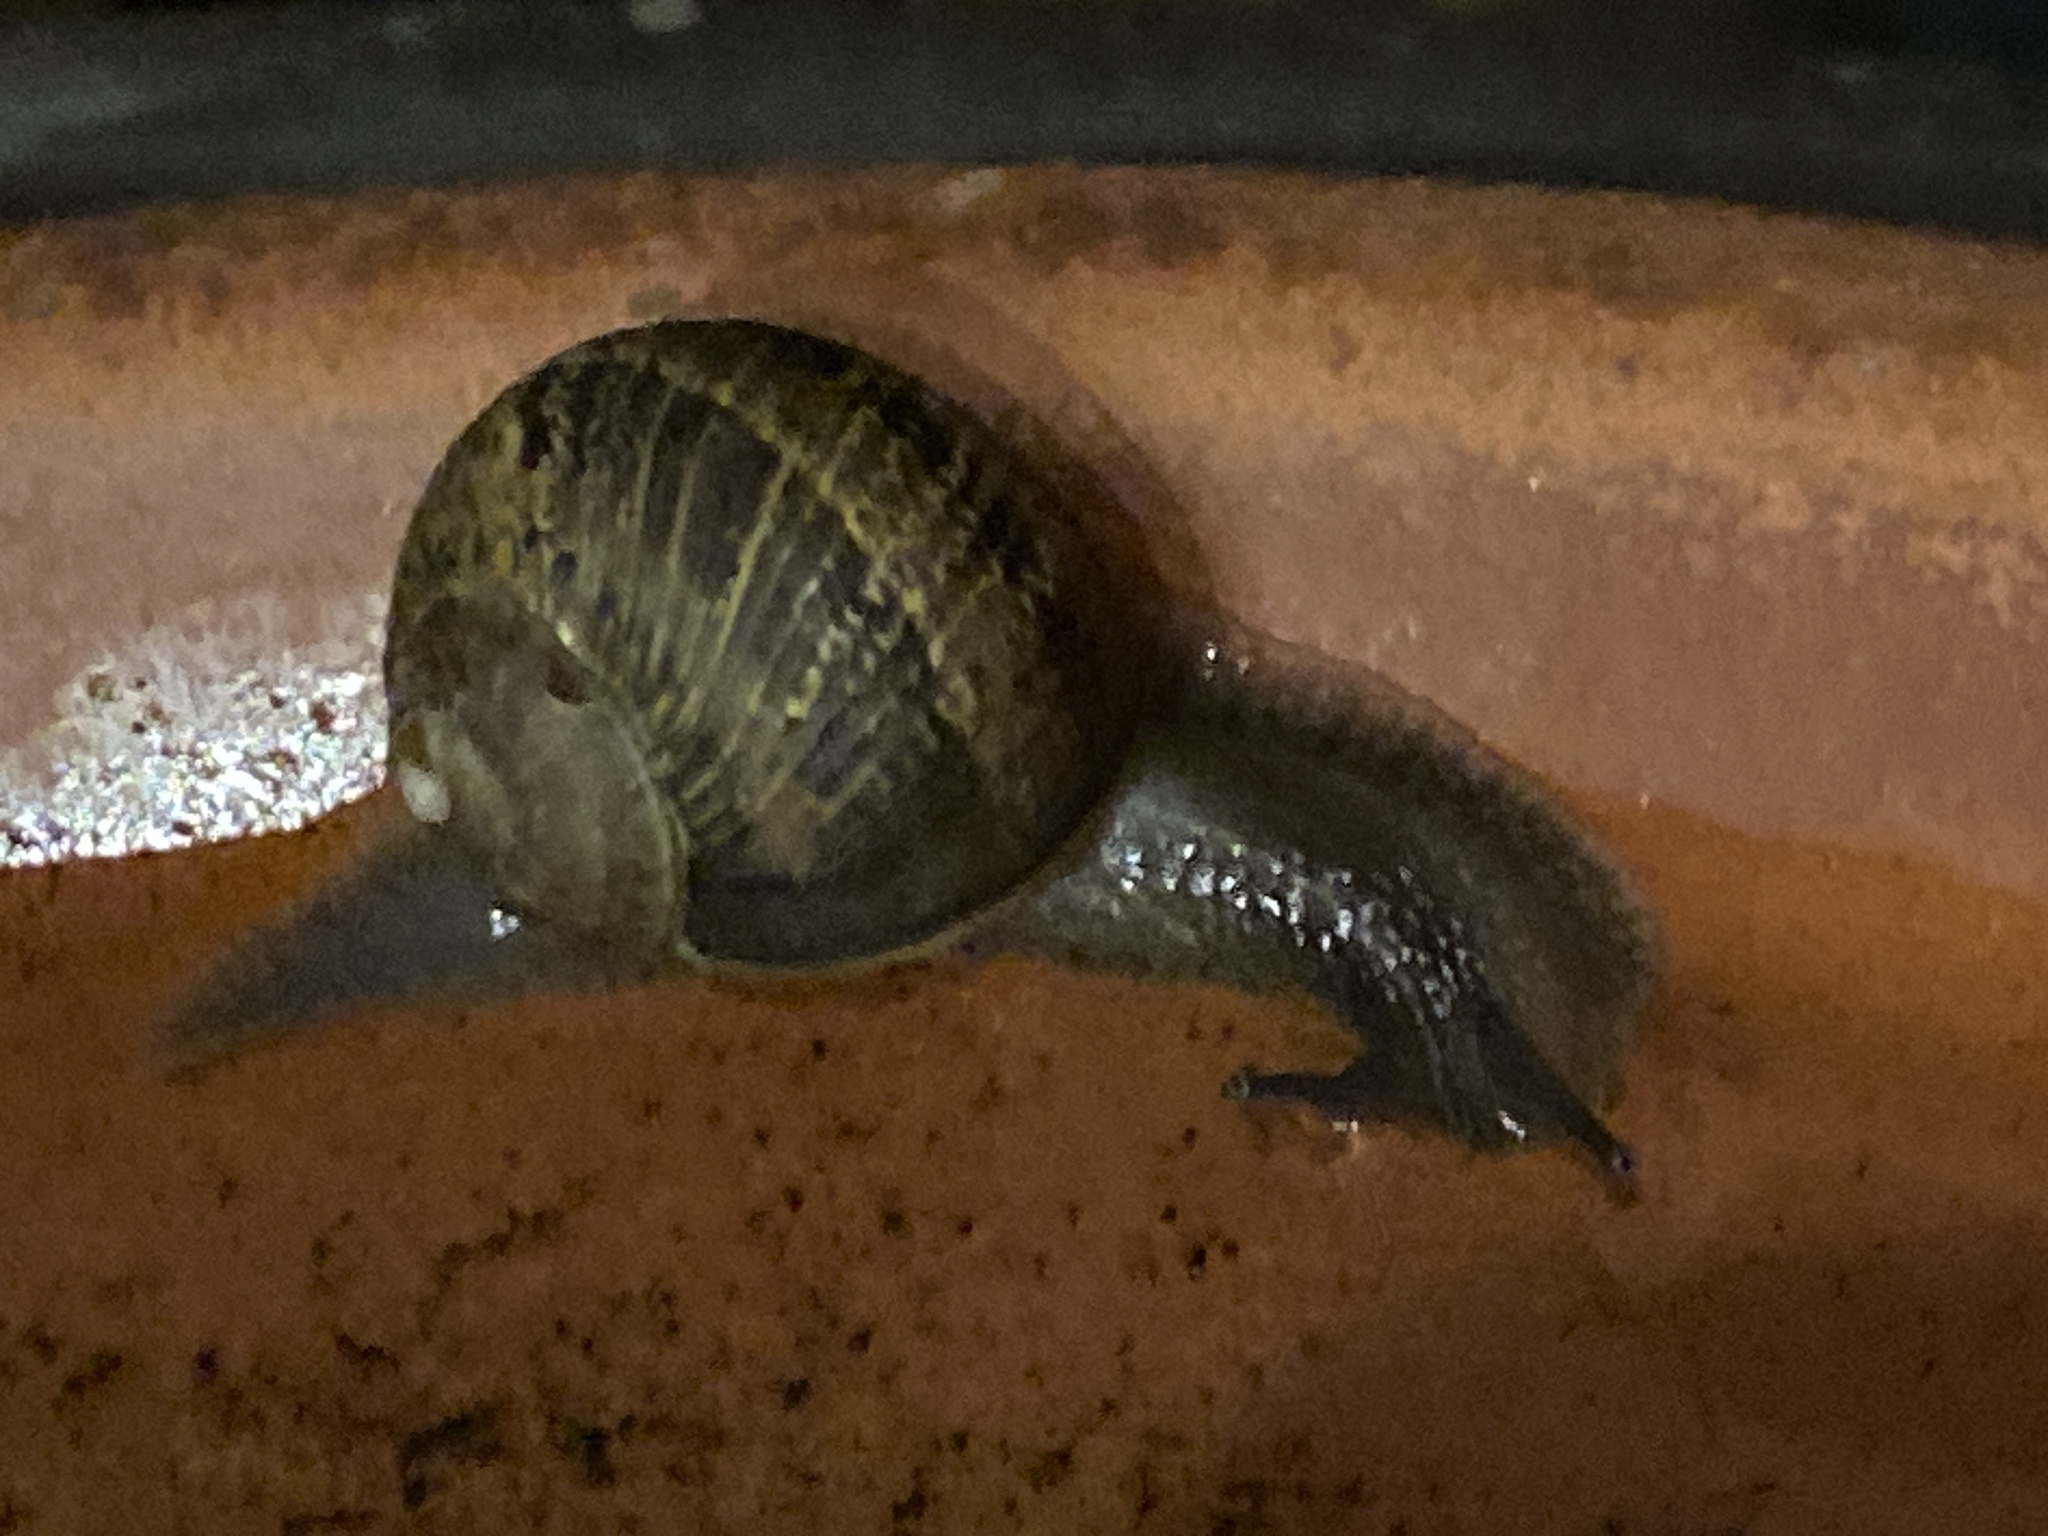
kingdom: Animalia
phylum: Mollusca
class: Gastropoda
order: Stylommatophora
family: Helicidae
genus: Cornu
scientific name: Cornu aspersum
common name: Brown garden snail
